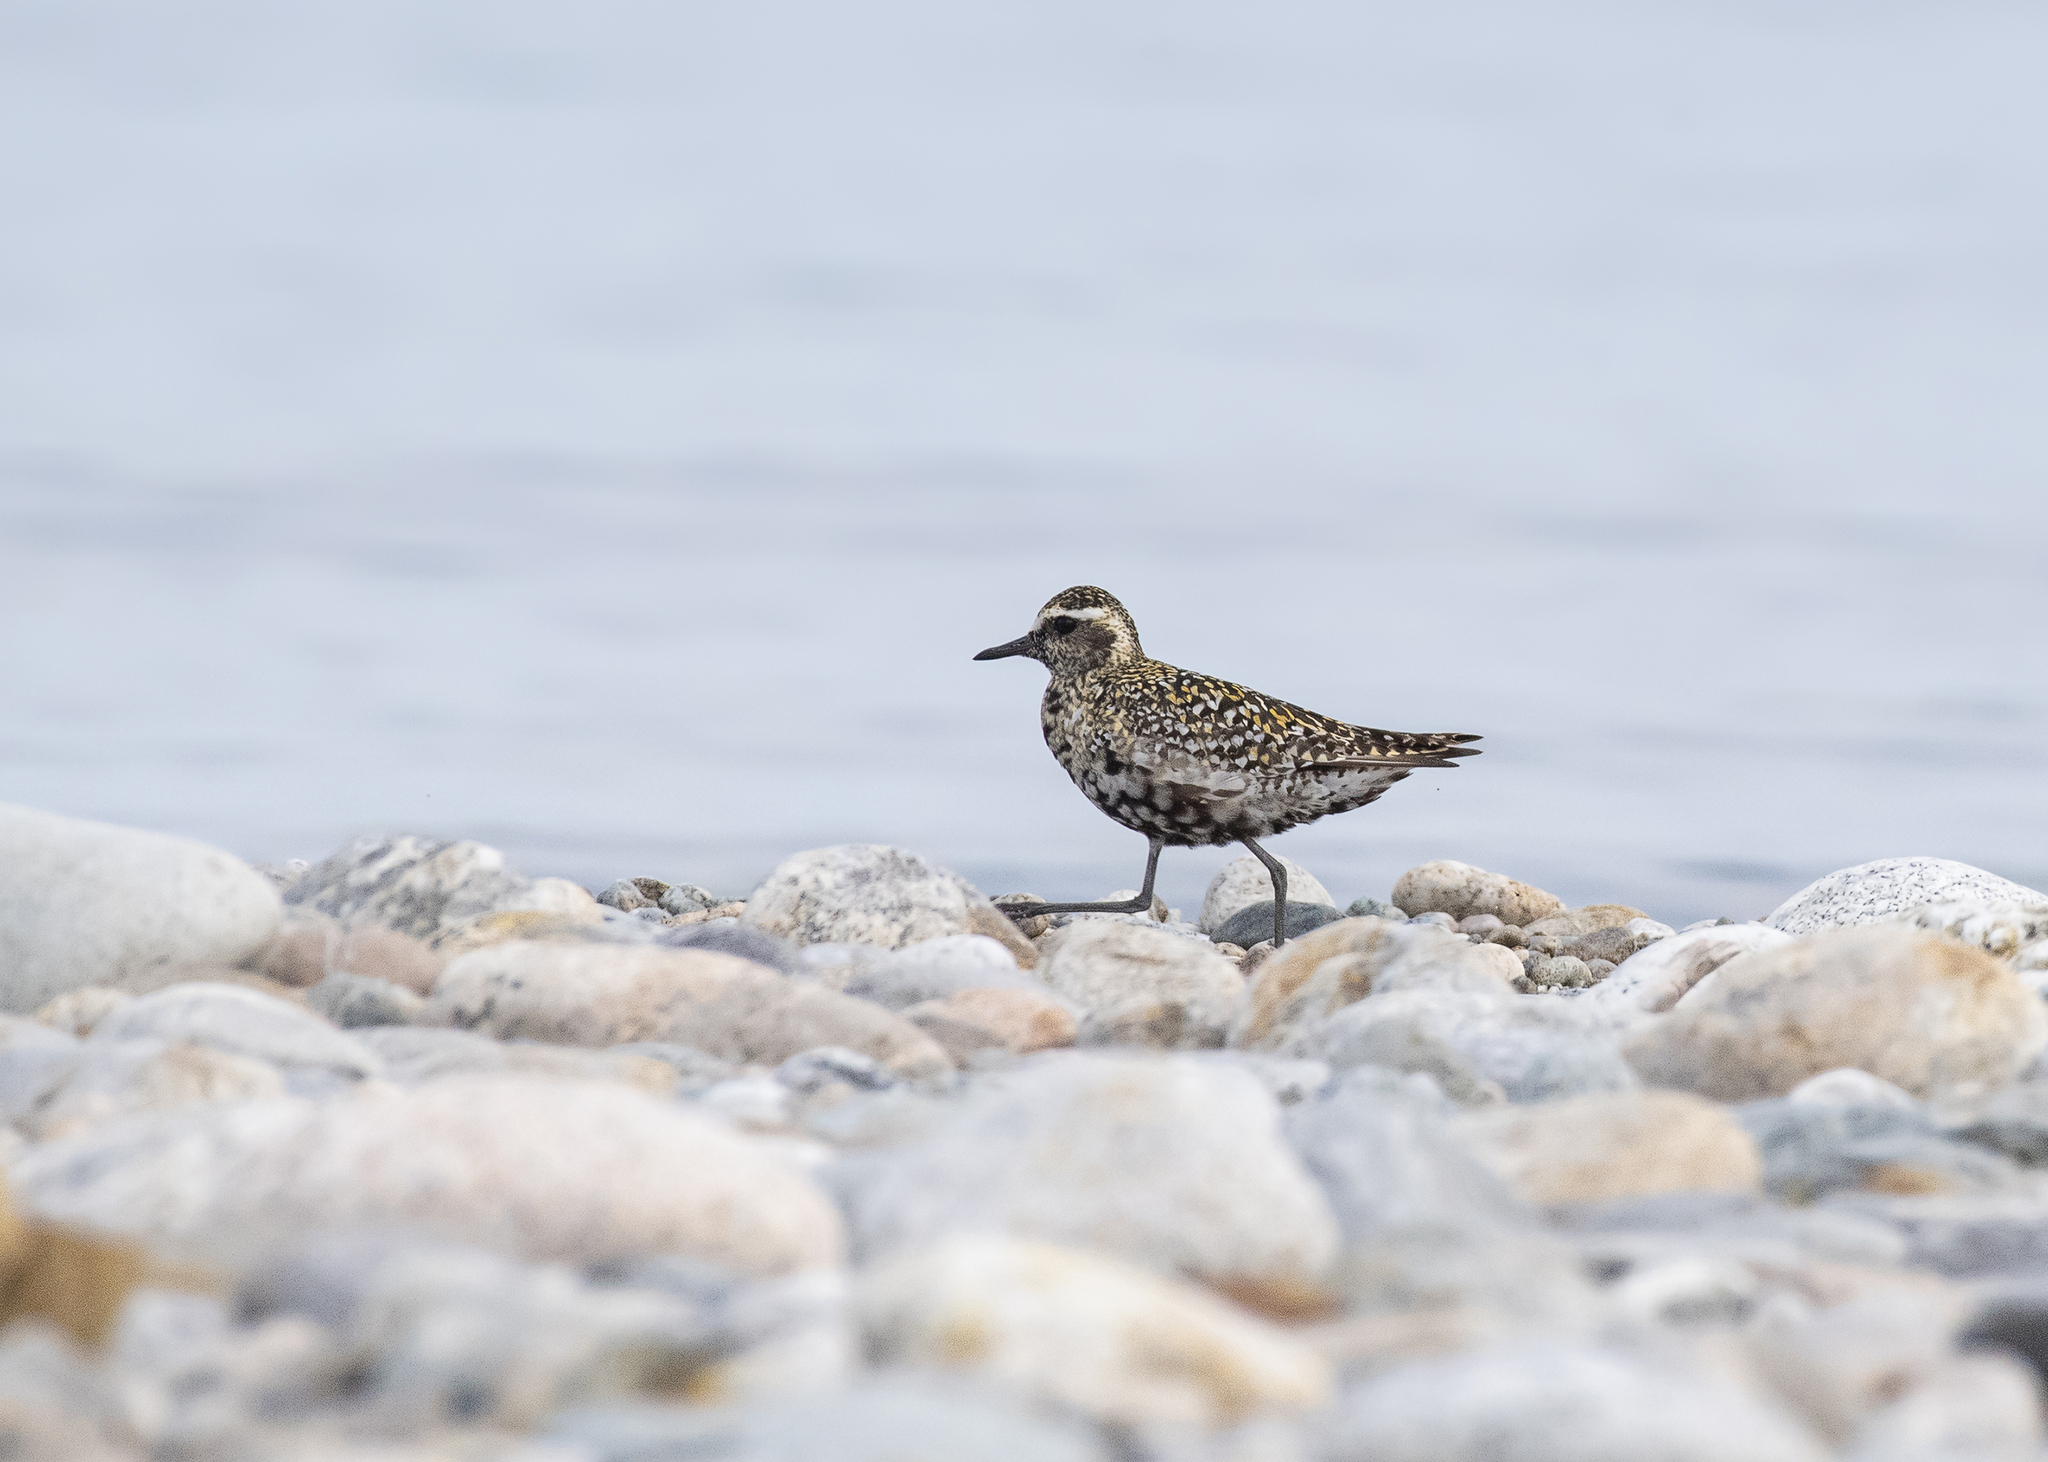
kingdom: Animalia
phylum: Chordata
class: Aves
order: Charadriiformes
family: Charadriidae
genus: Pluvialis
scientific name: Pluvialis fulva
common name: Pacific golden plover
